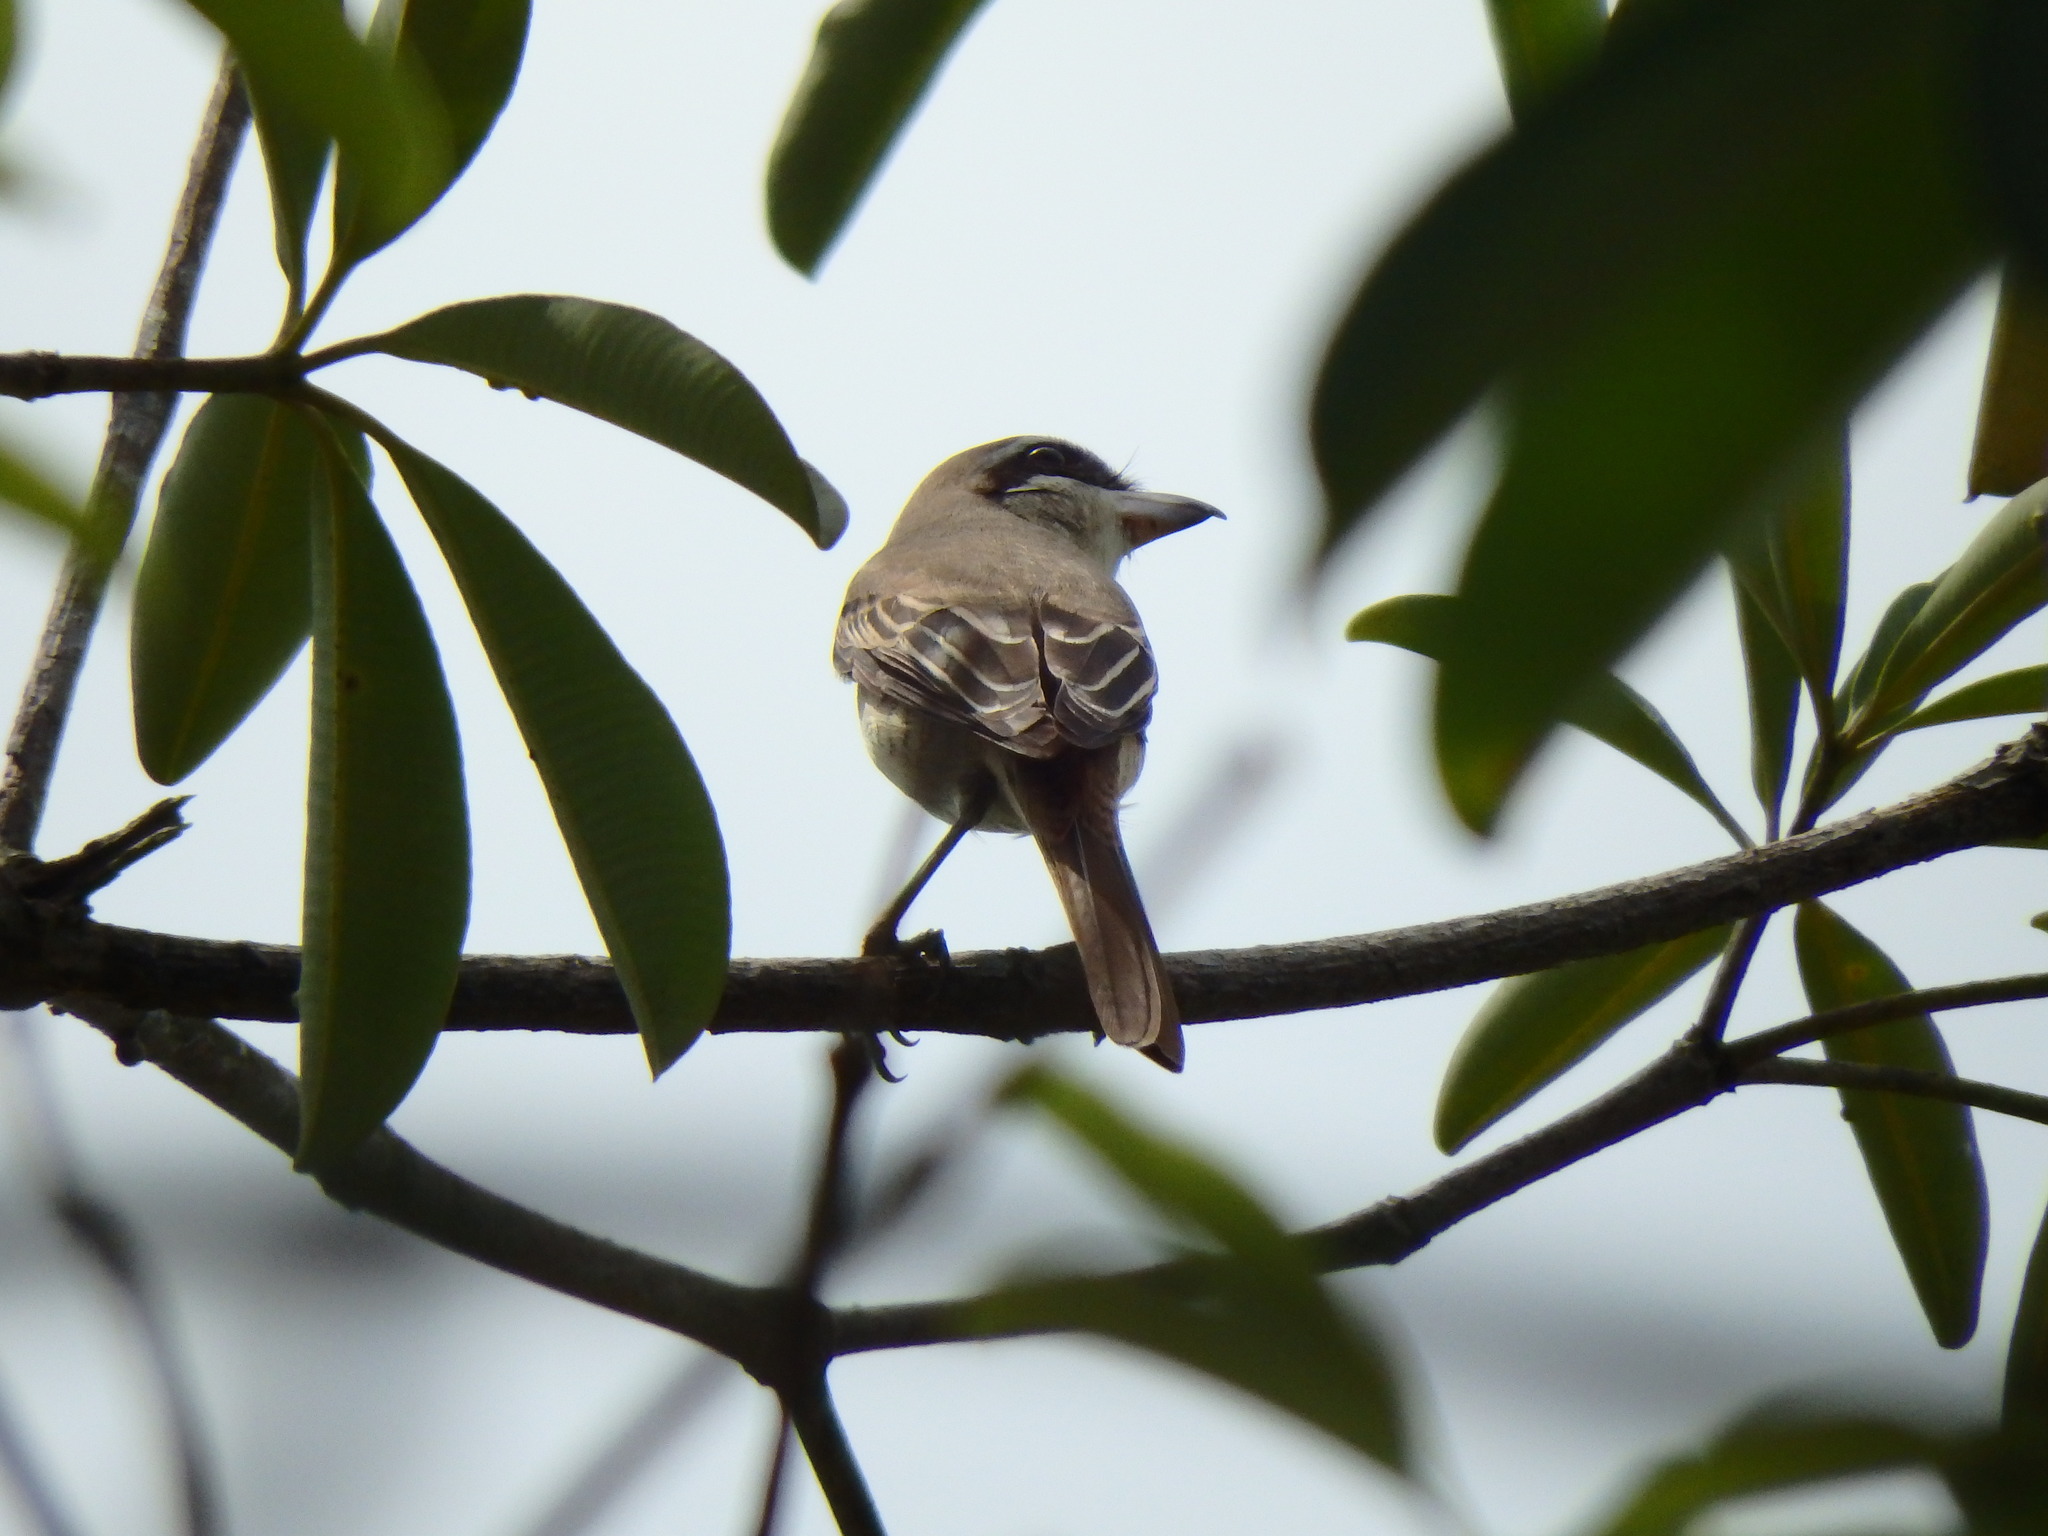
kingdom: Animalia
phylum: Chordata
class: Aves
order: Passeriformes
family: Laniidae
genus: Lanius
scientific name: Lanius cristatus
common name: Brown shrike
